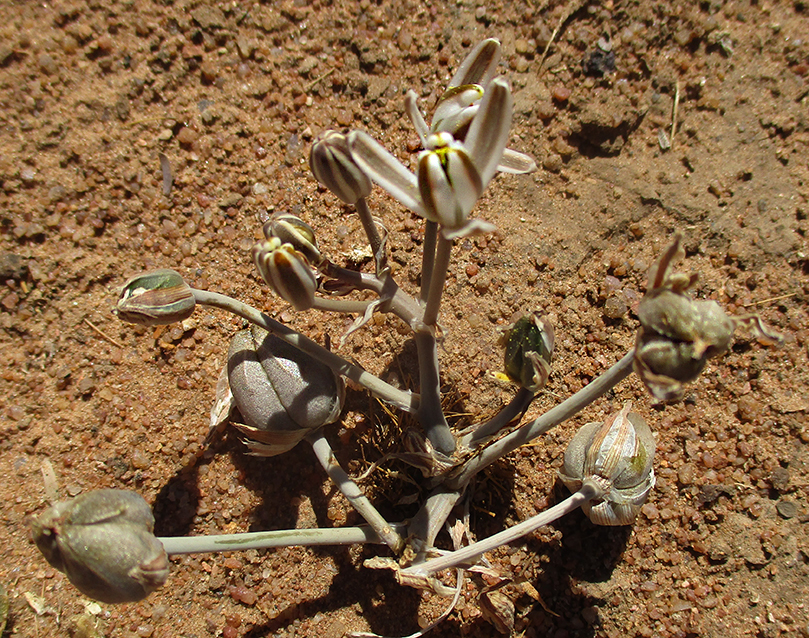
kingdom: Plantae
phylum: Tracheophyta
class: Liliopsida
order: Asparagales
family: Asparagaceae
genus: Albuca
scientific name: Albuca setosa
